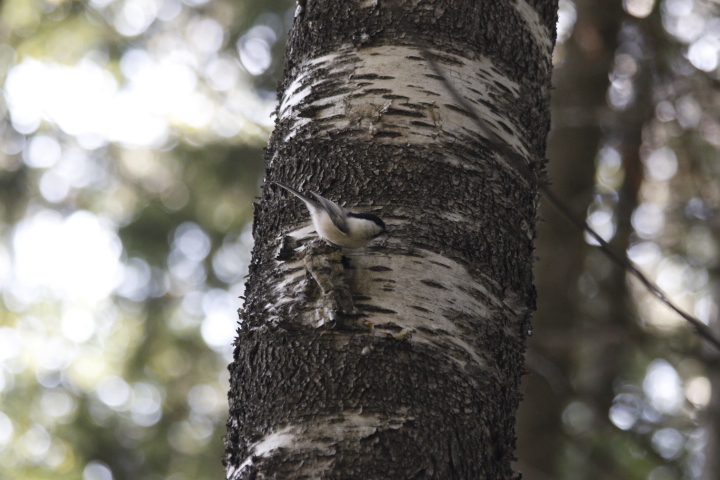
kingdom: Animalia
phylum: Chordata
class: Aves
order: Passeriformes
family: Paridae
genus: Poecile
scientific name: Poecile montanus
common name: Willow tit
